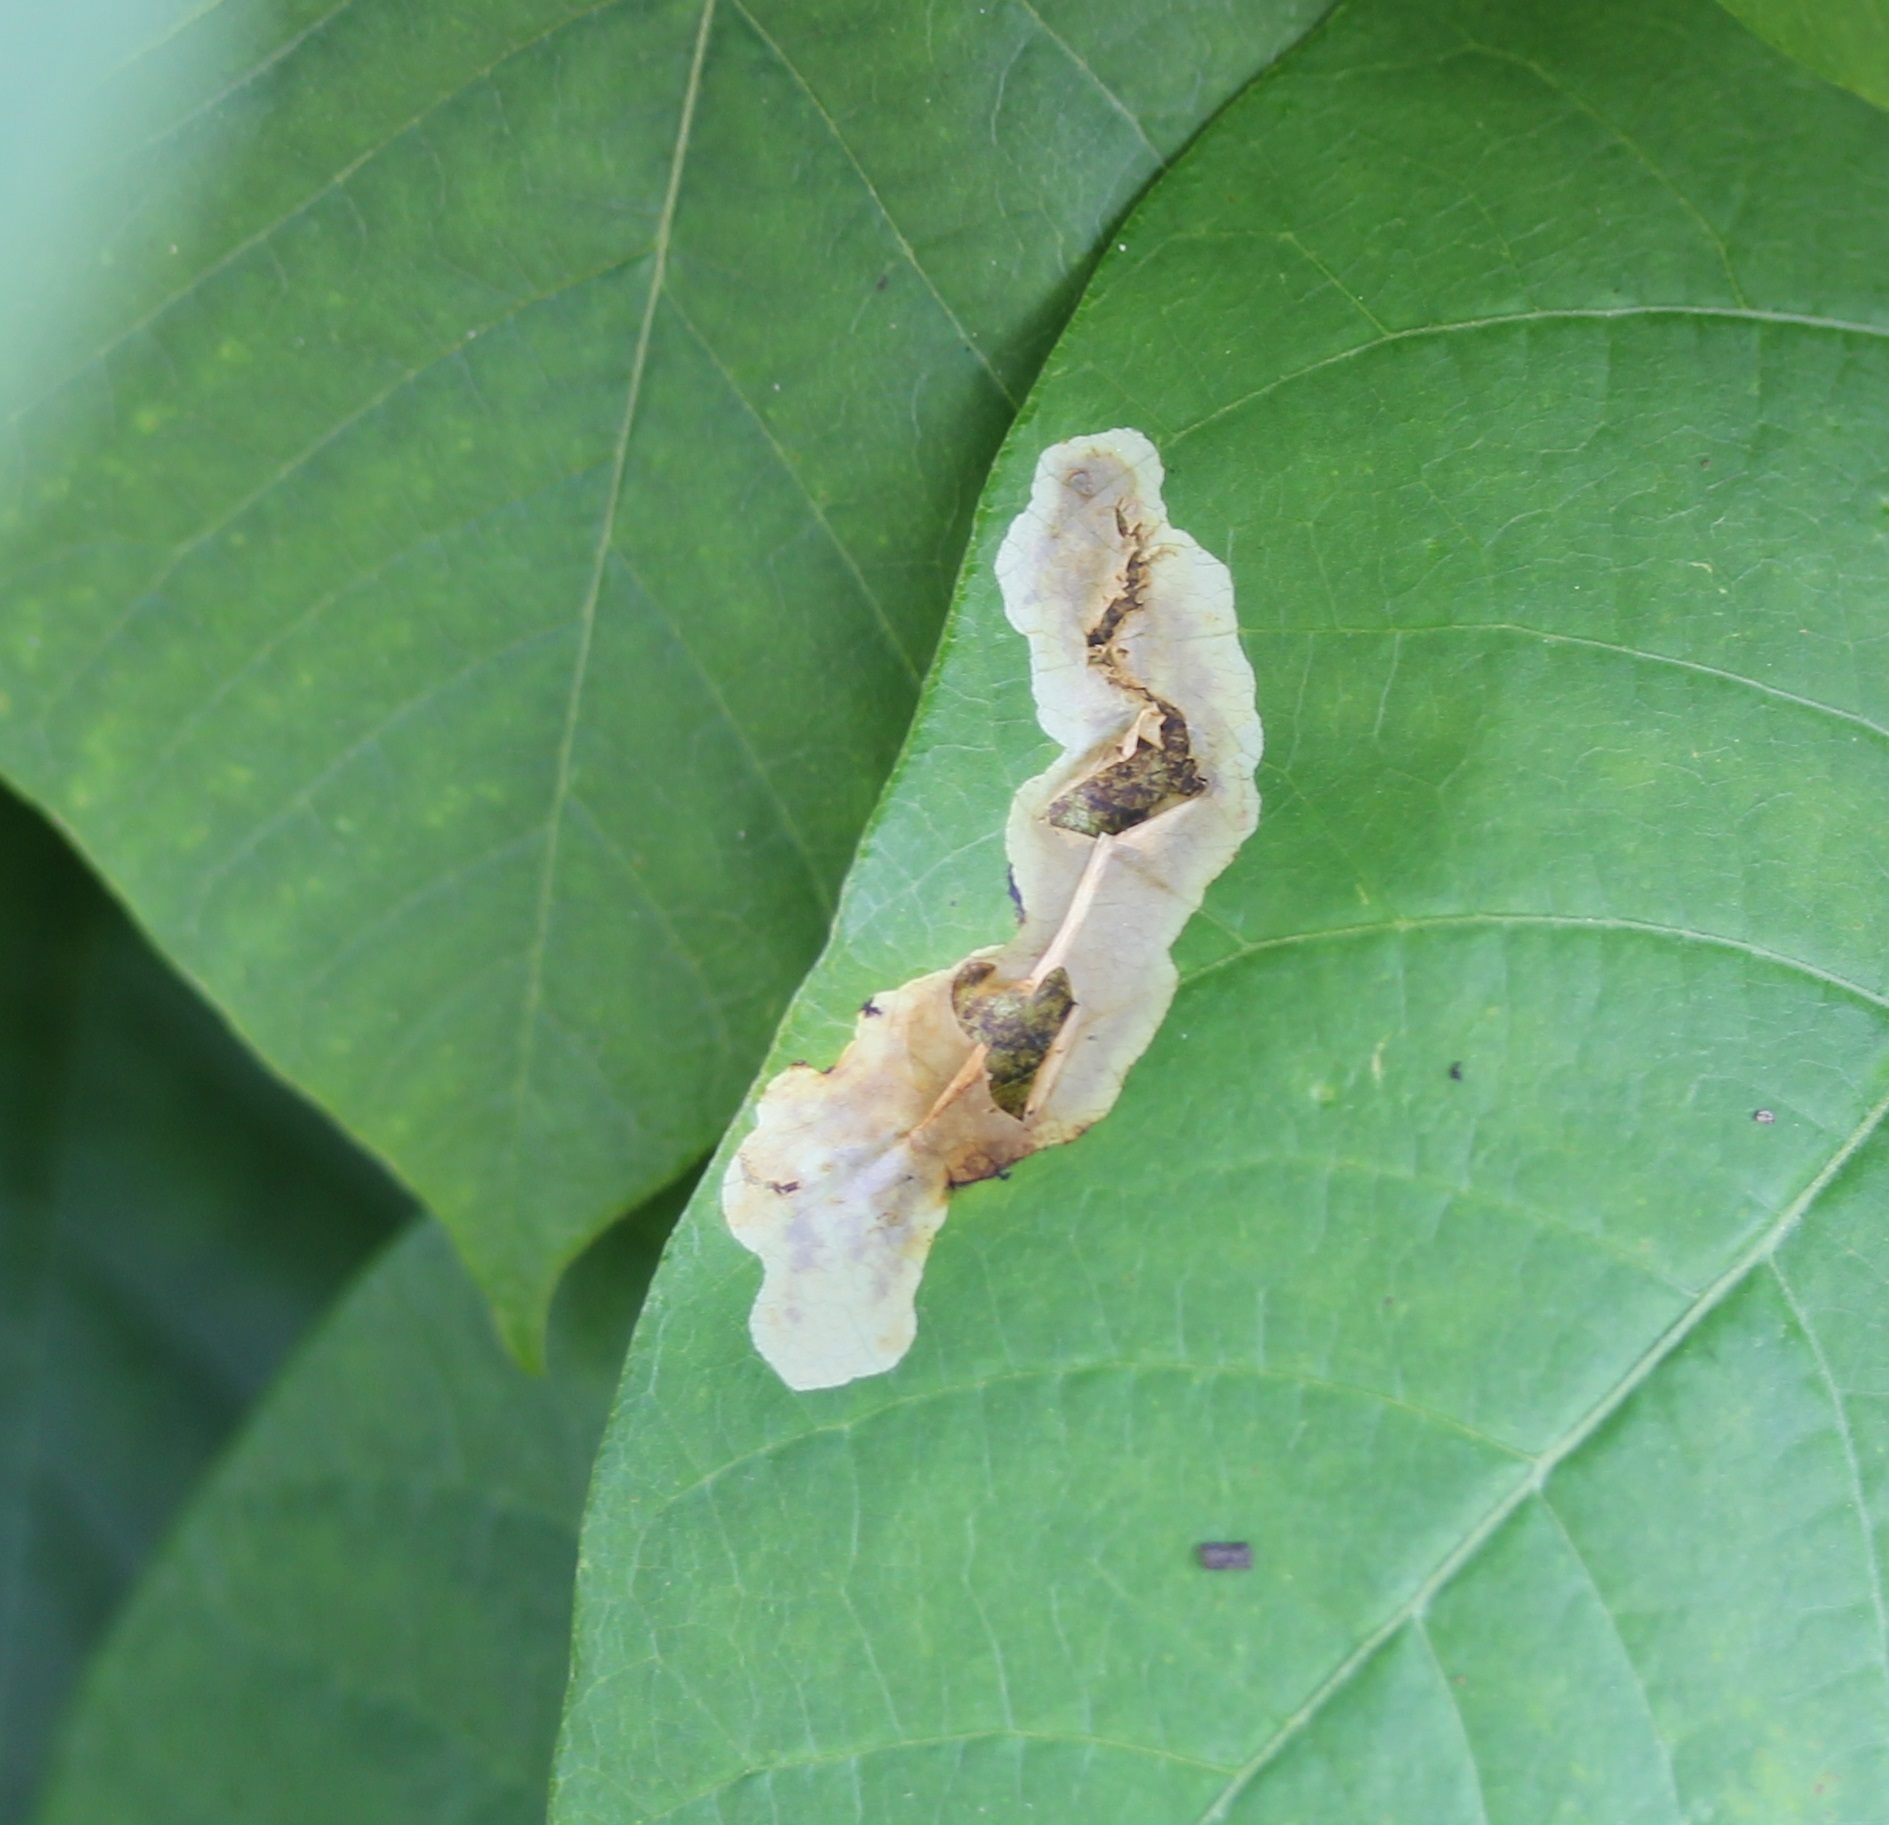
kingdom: Animalia
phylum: Arthropoda
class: Insecta
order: Lepidoptera
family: Gracillariidae
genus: Cameraria
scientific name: Cameraria guttifinitella
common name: Poison ivy leaf-miner moth
